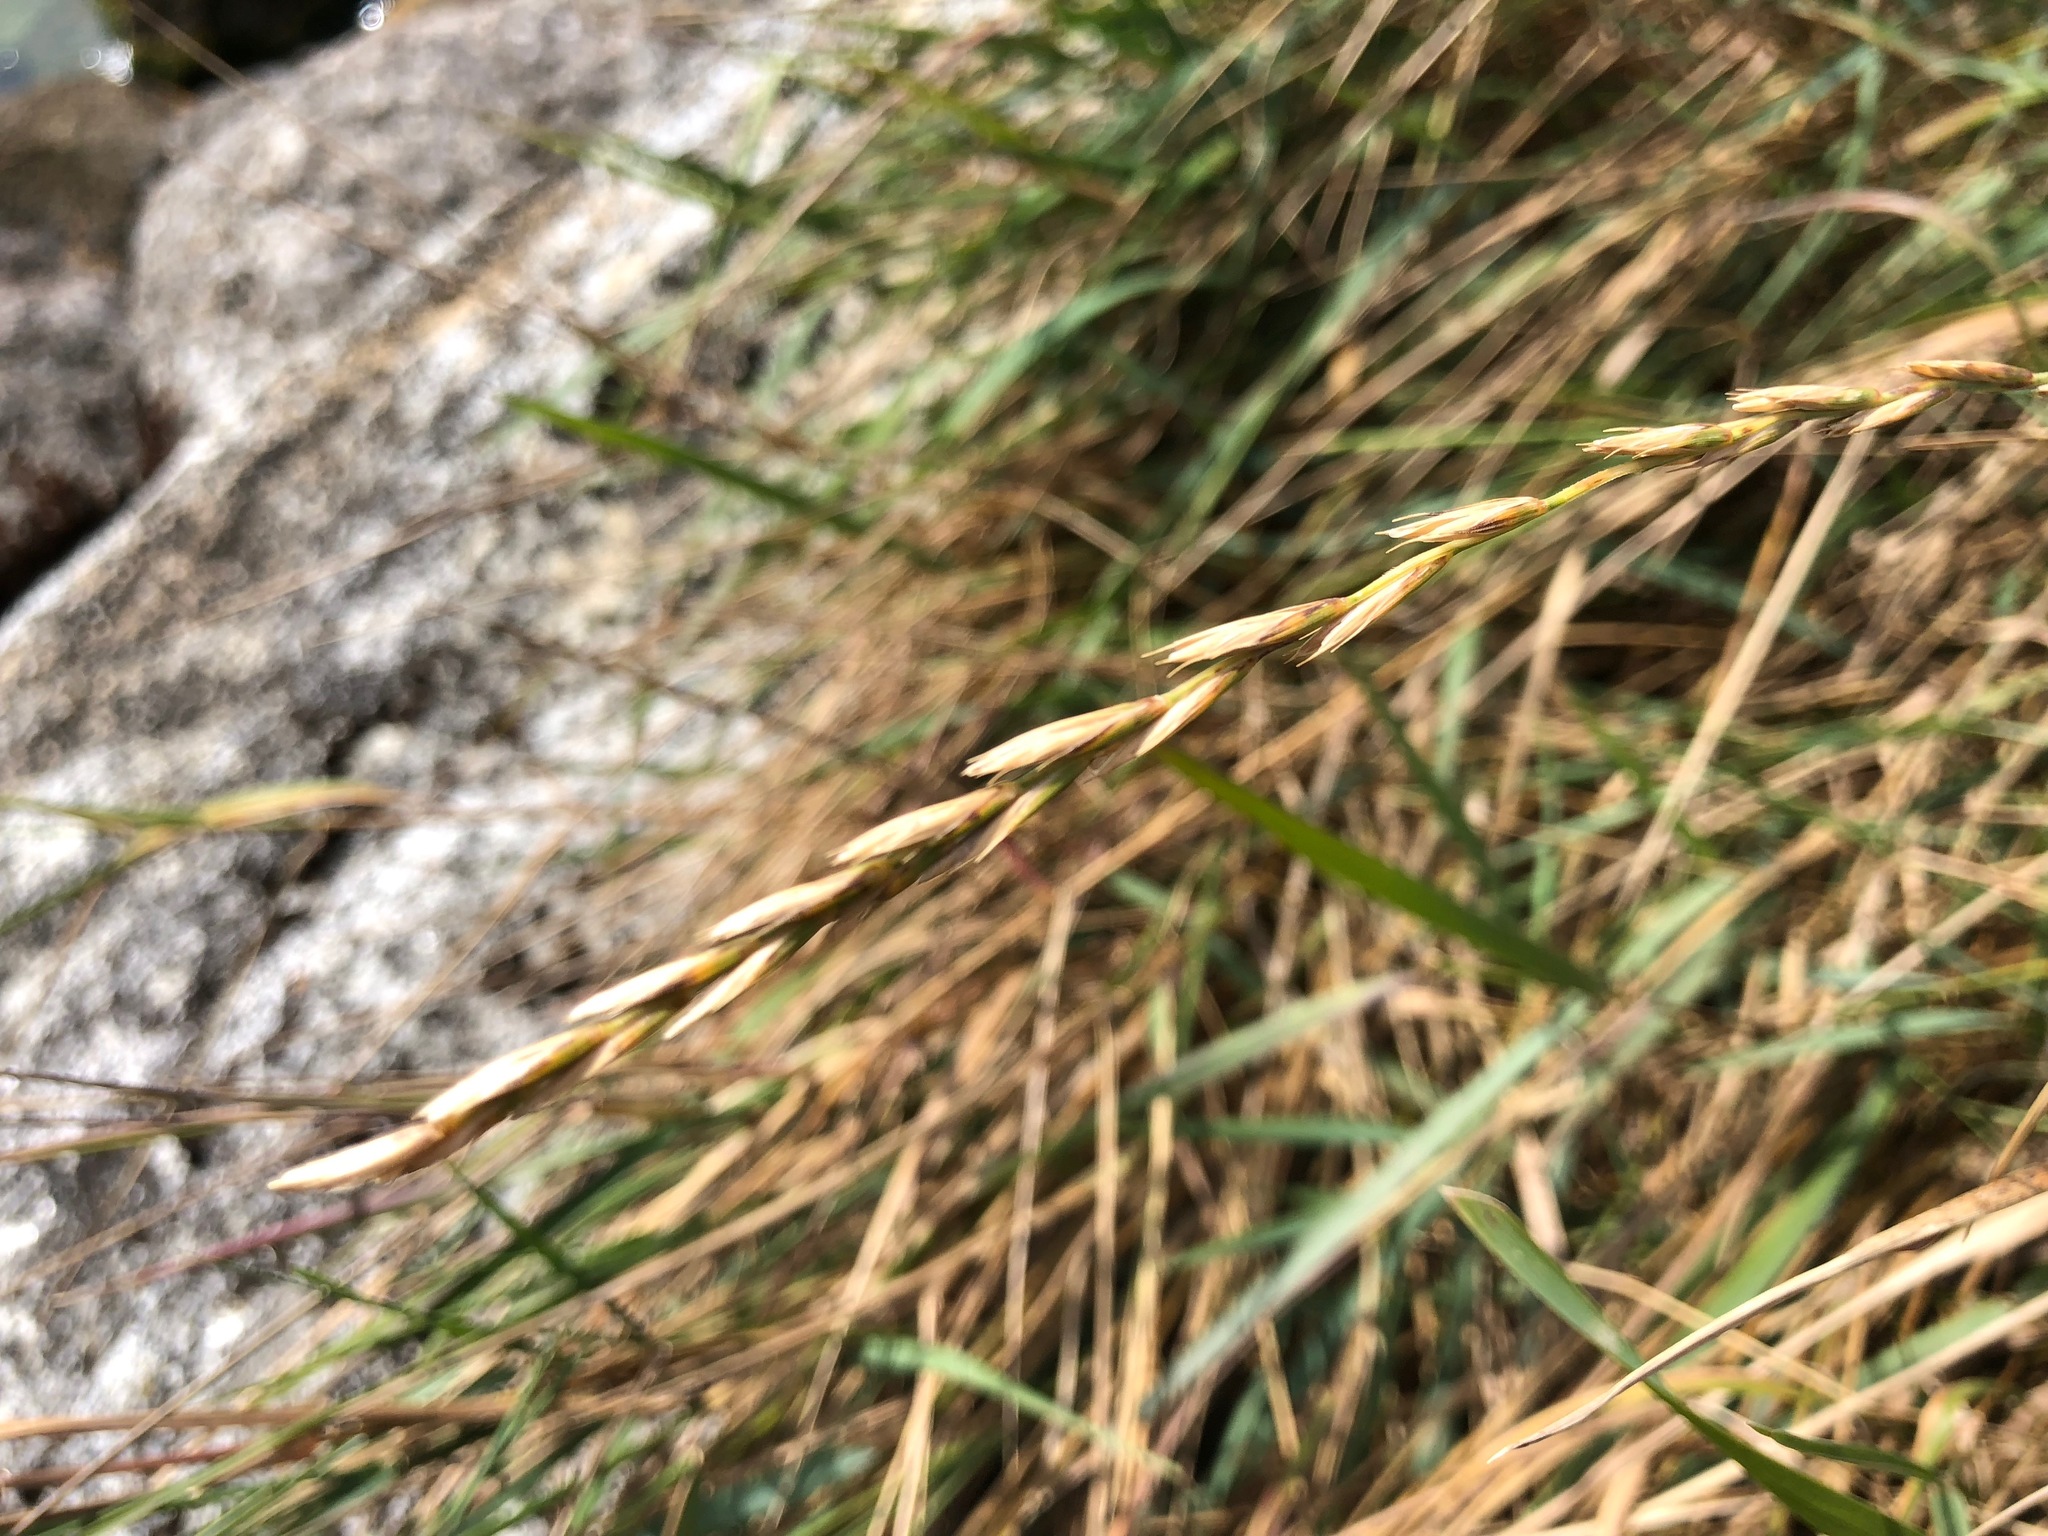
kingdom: Plantae
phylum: Tracheophyta
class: Liliopsida
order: Poales
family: Poaceae
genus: Elymus
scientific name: Elymus repens
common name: Quackgrass
